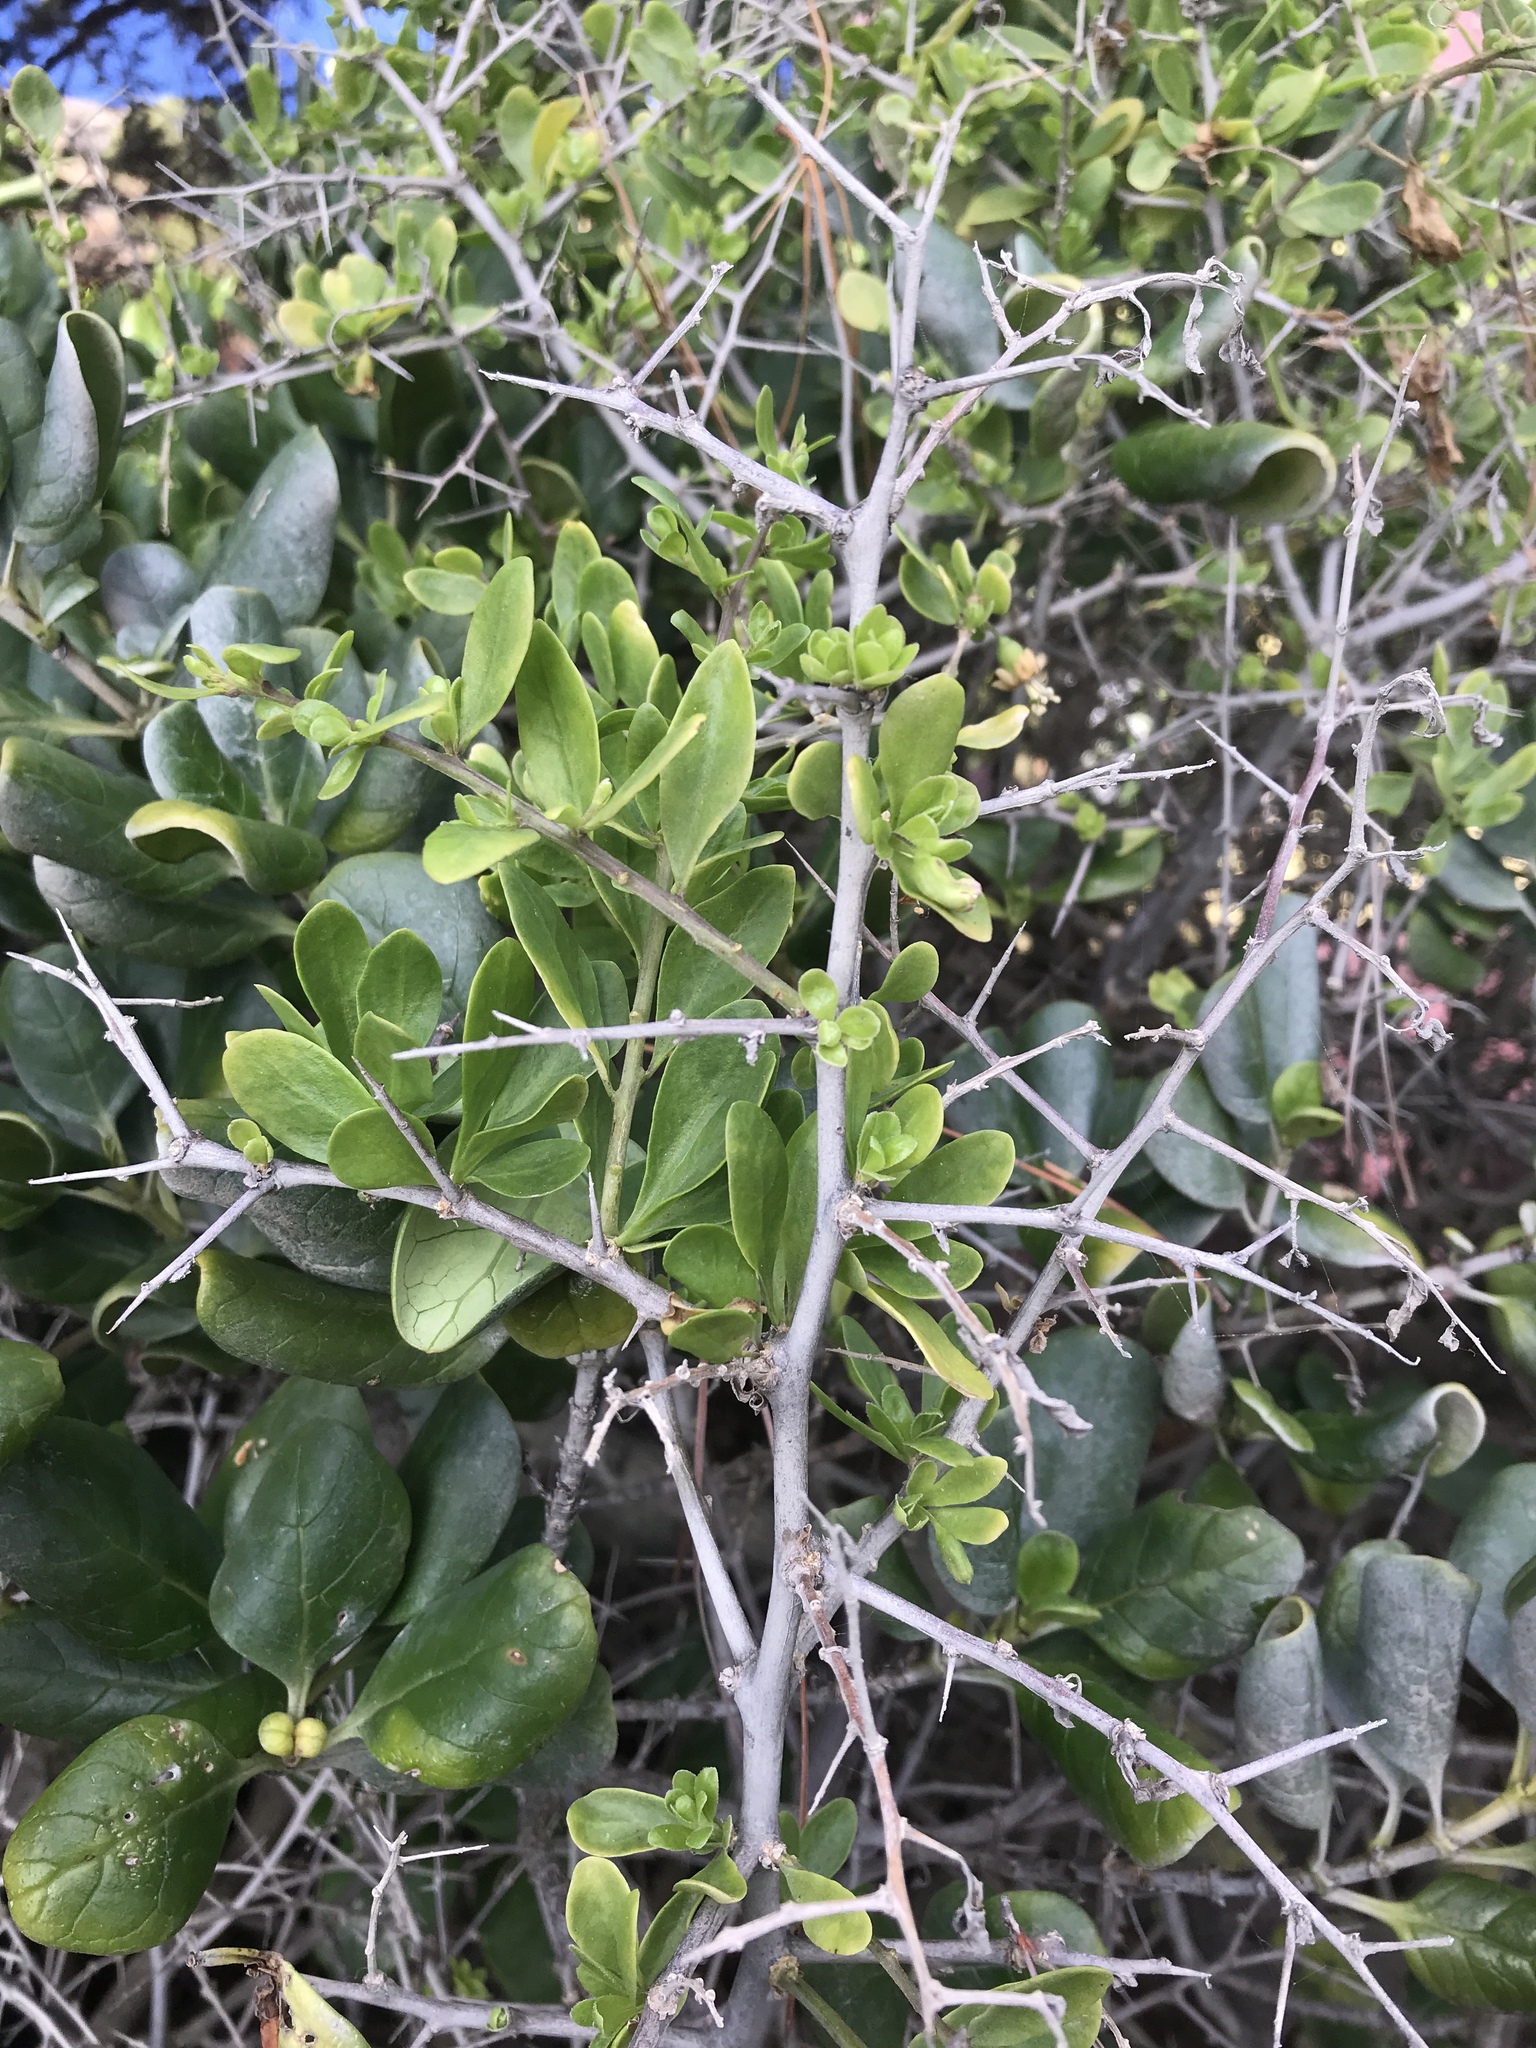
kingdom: Plantae
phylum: Tracheophyta
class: Magnoliopsida
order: Solanales
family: Solanaceae
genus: Lycium
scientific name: Lycium ferocissimum
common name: African boxthorn
